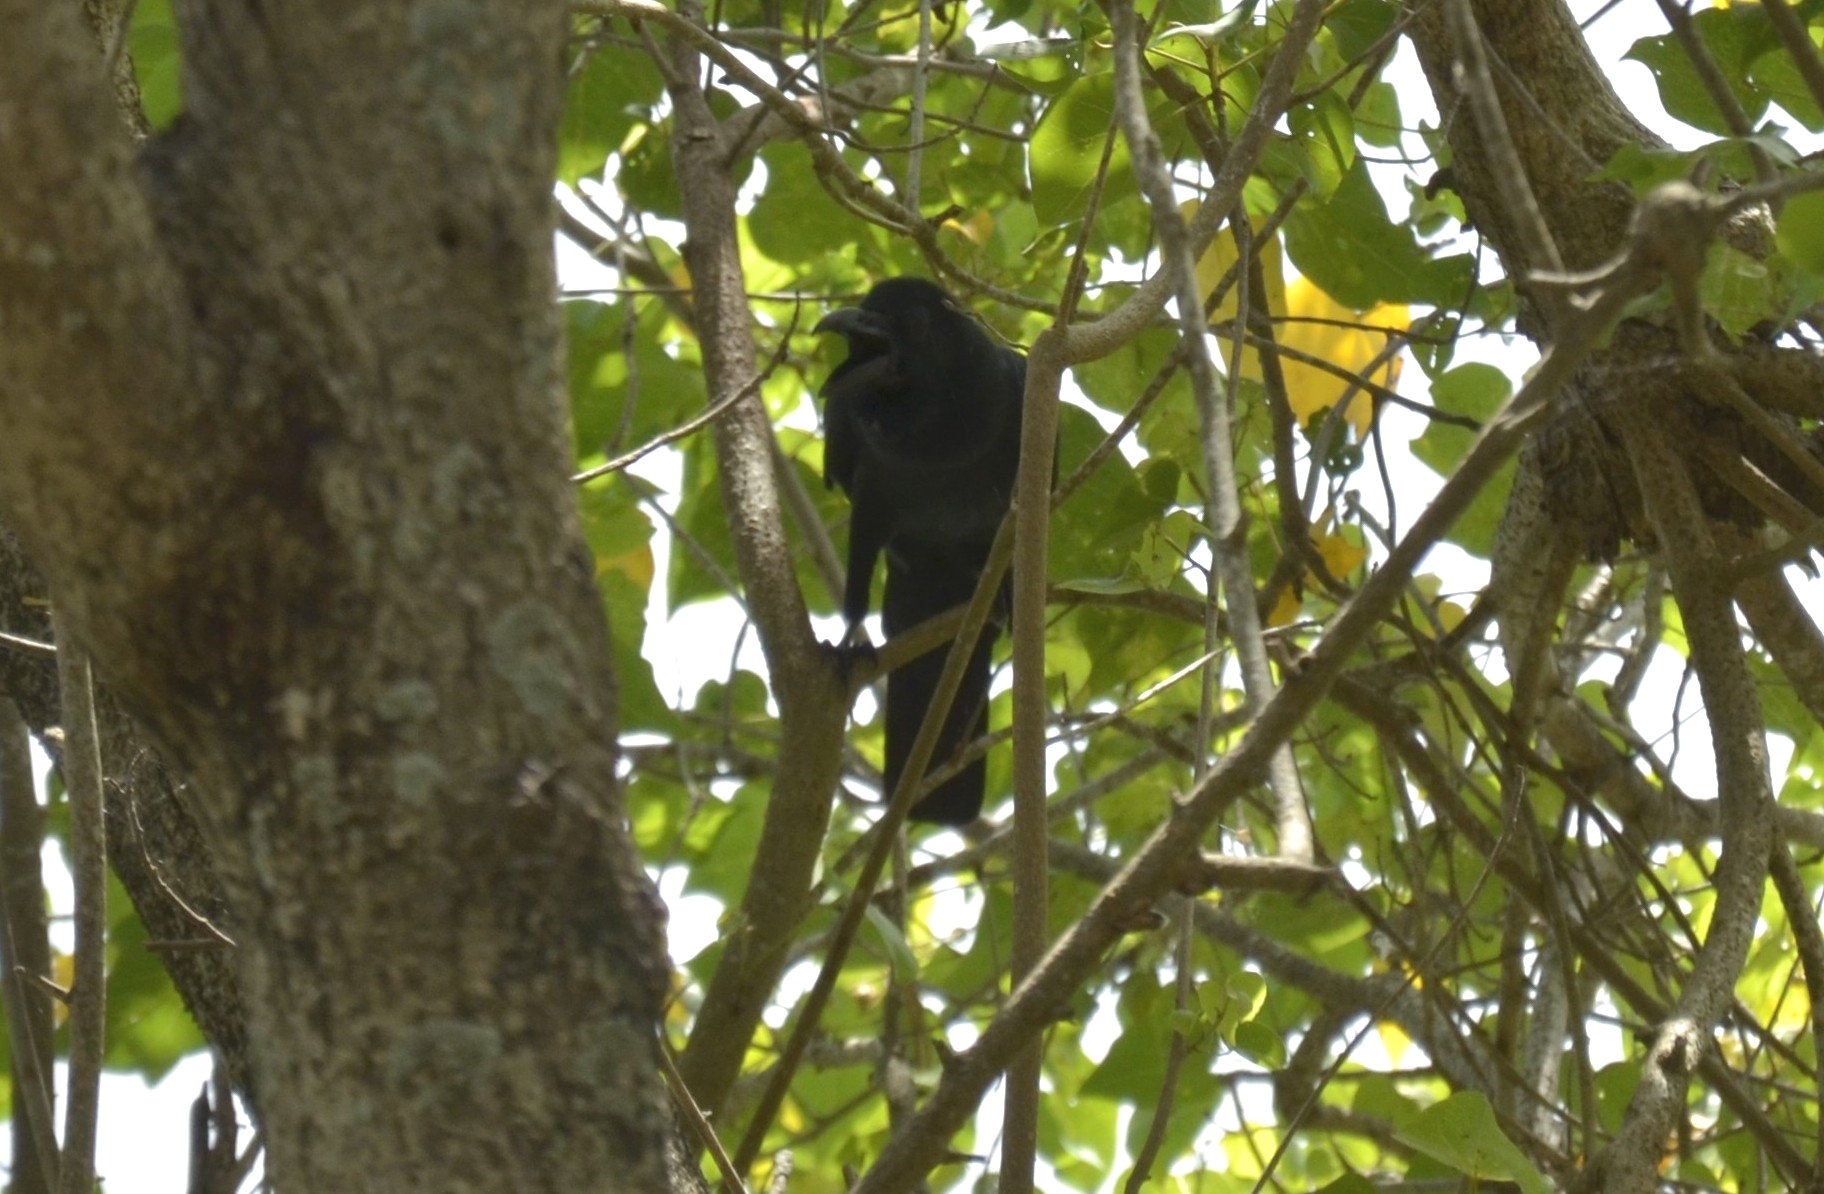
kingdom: Animalia
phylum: Chordata
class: Aves
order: Passeriformes
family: Corvidae
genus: Corvus
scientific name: Corvus macrorhynchos
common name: Large-billed crow
